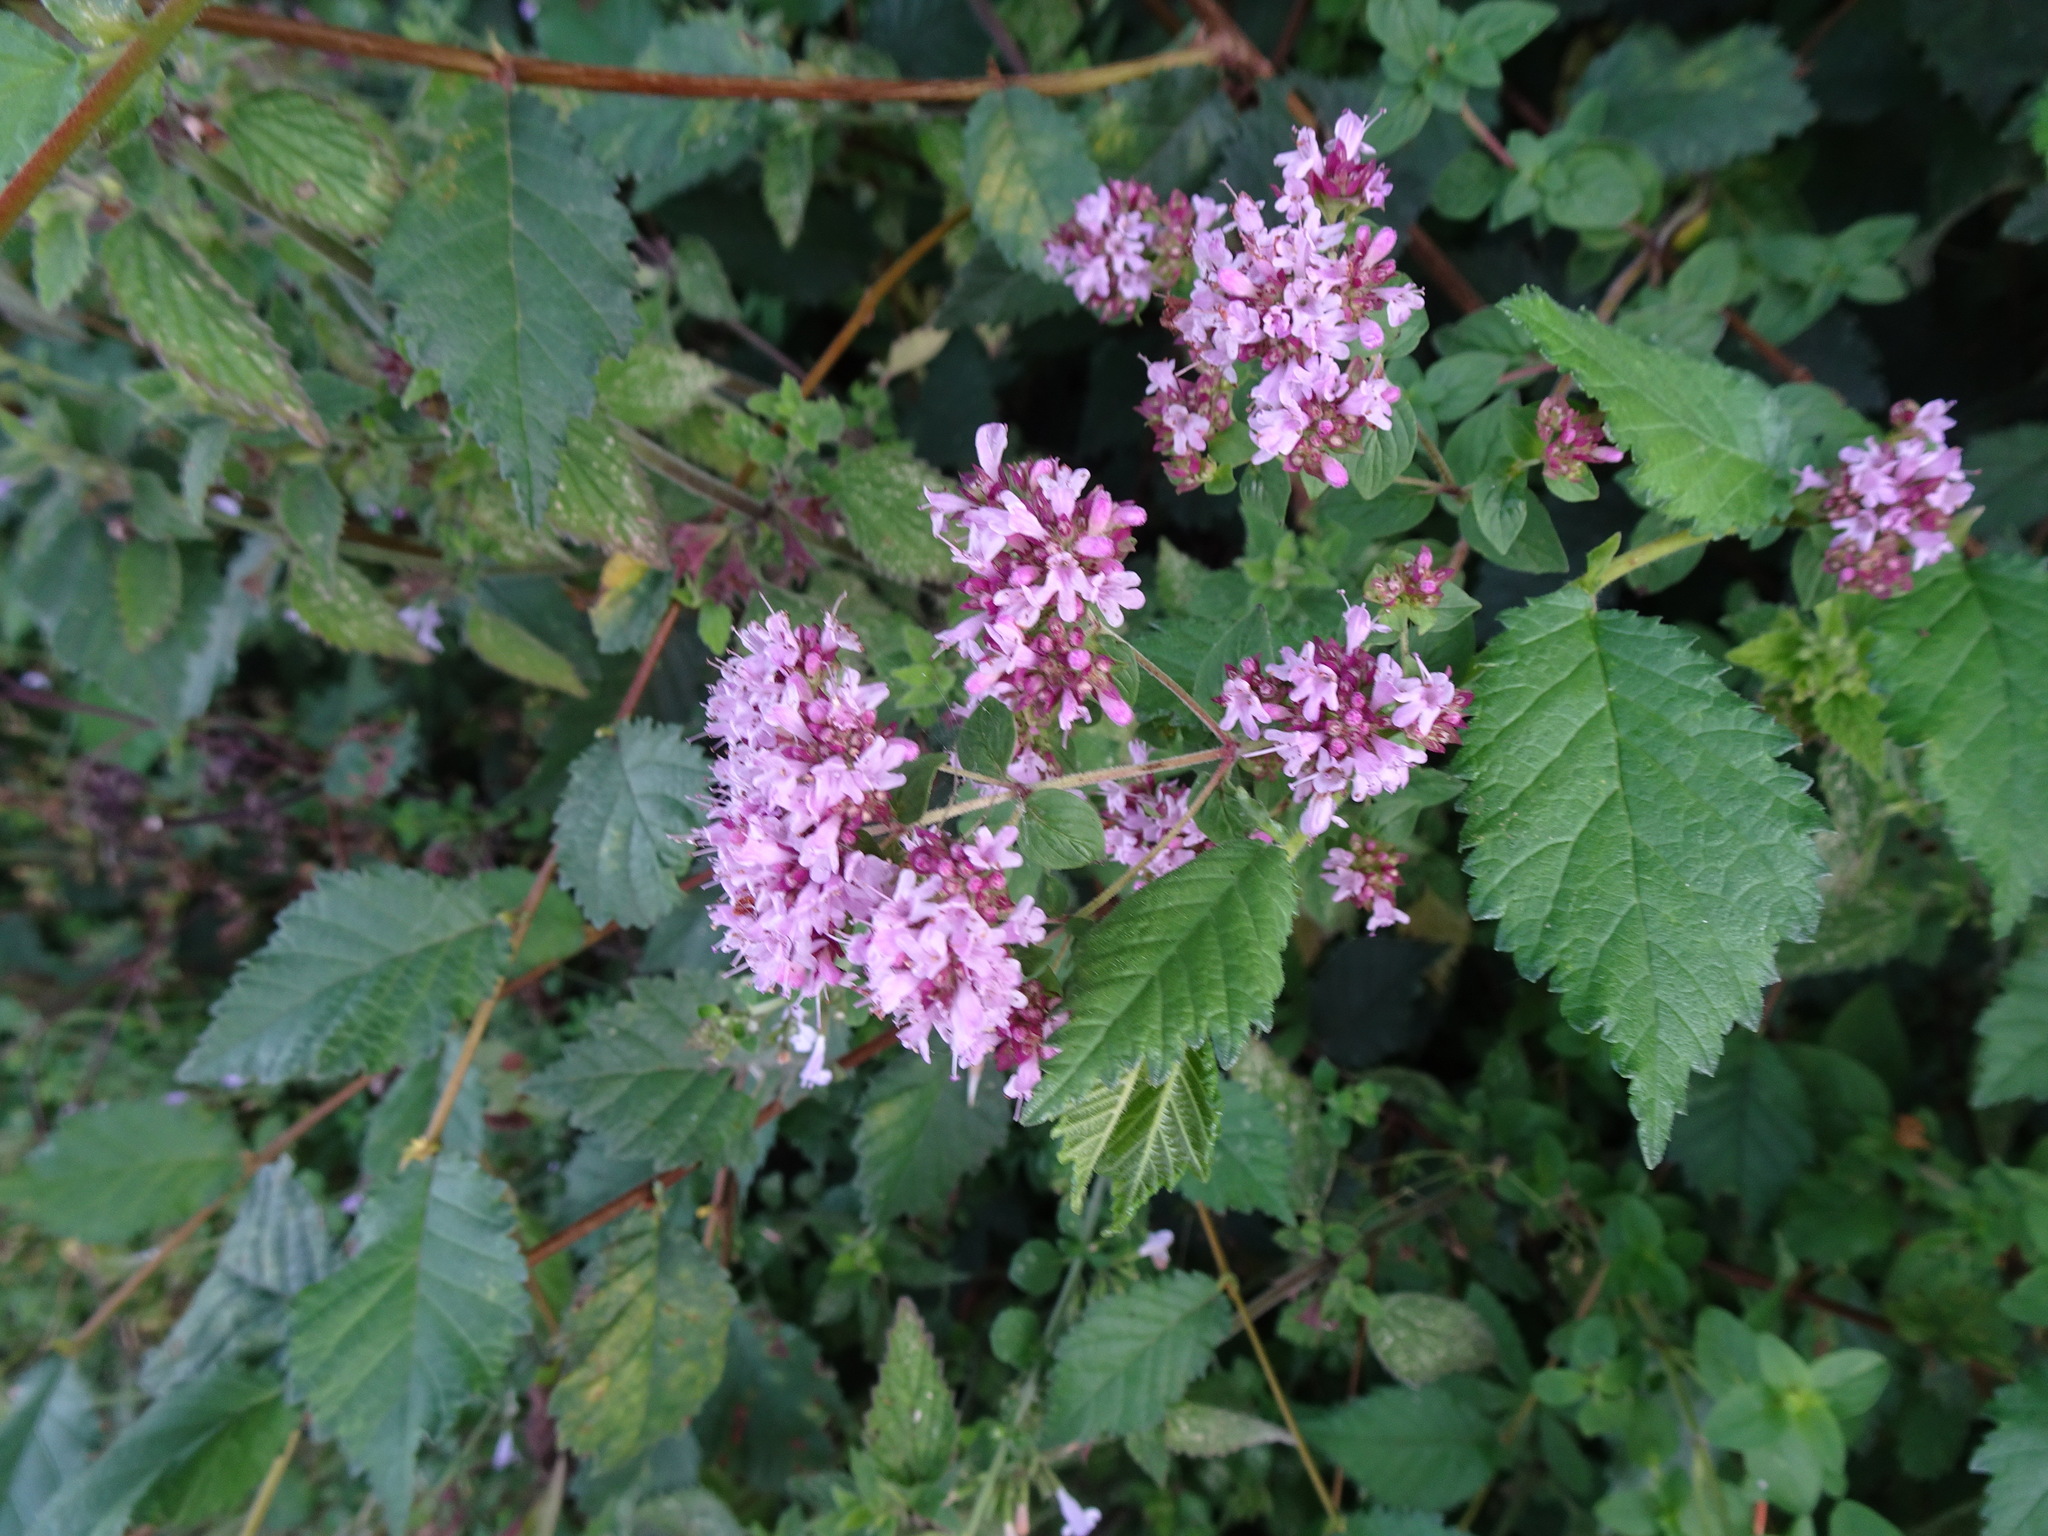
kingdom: Plantae
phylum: Tracheophyta
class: Magnoliopsida
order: Lamiales
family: Lamiaceae
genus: Origanum
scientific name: Origanum vulgare
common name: Wild marjoram
